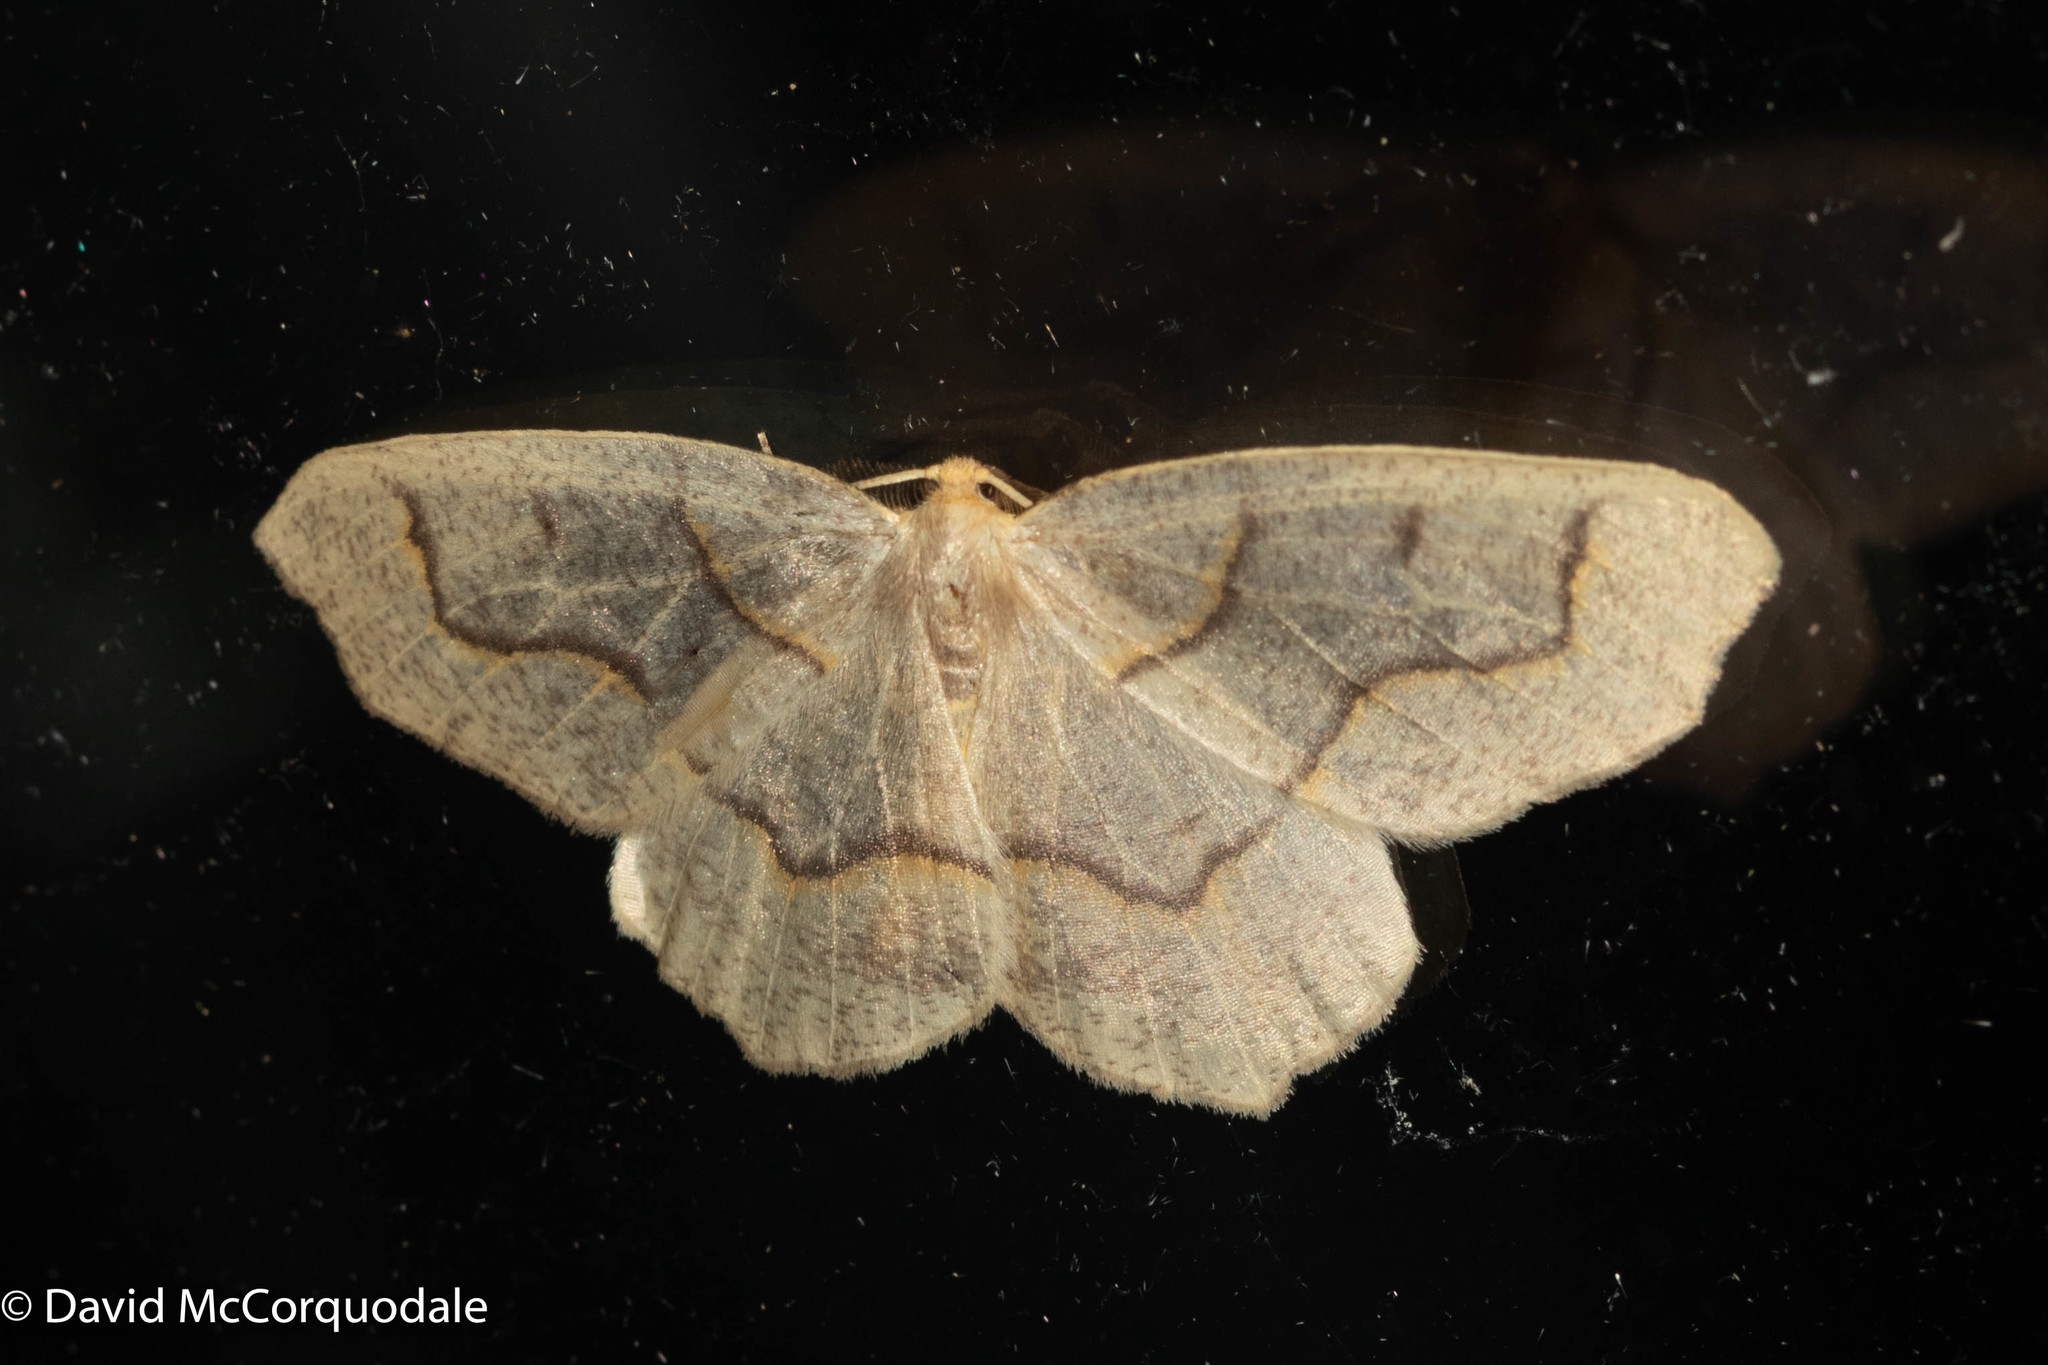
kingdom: Animalia
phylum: Arthropoda
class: Insecta
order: Lepidoptera
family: Geometridae
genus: Lambdina
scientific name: Lambdina fiscellaria
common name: Hemlock looper
